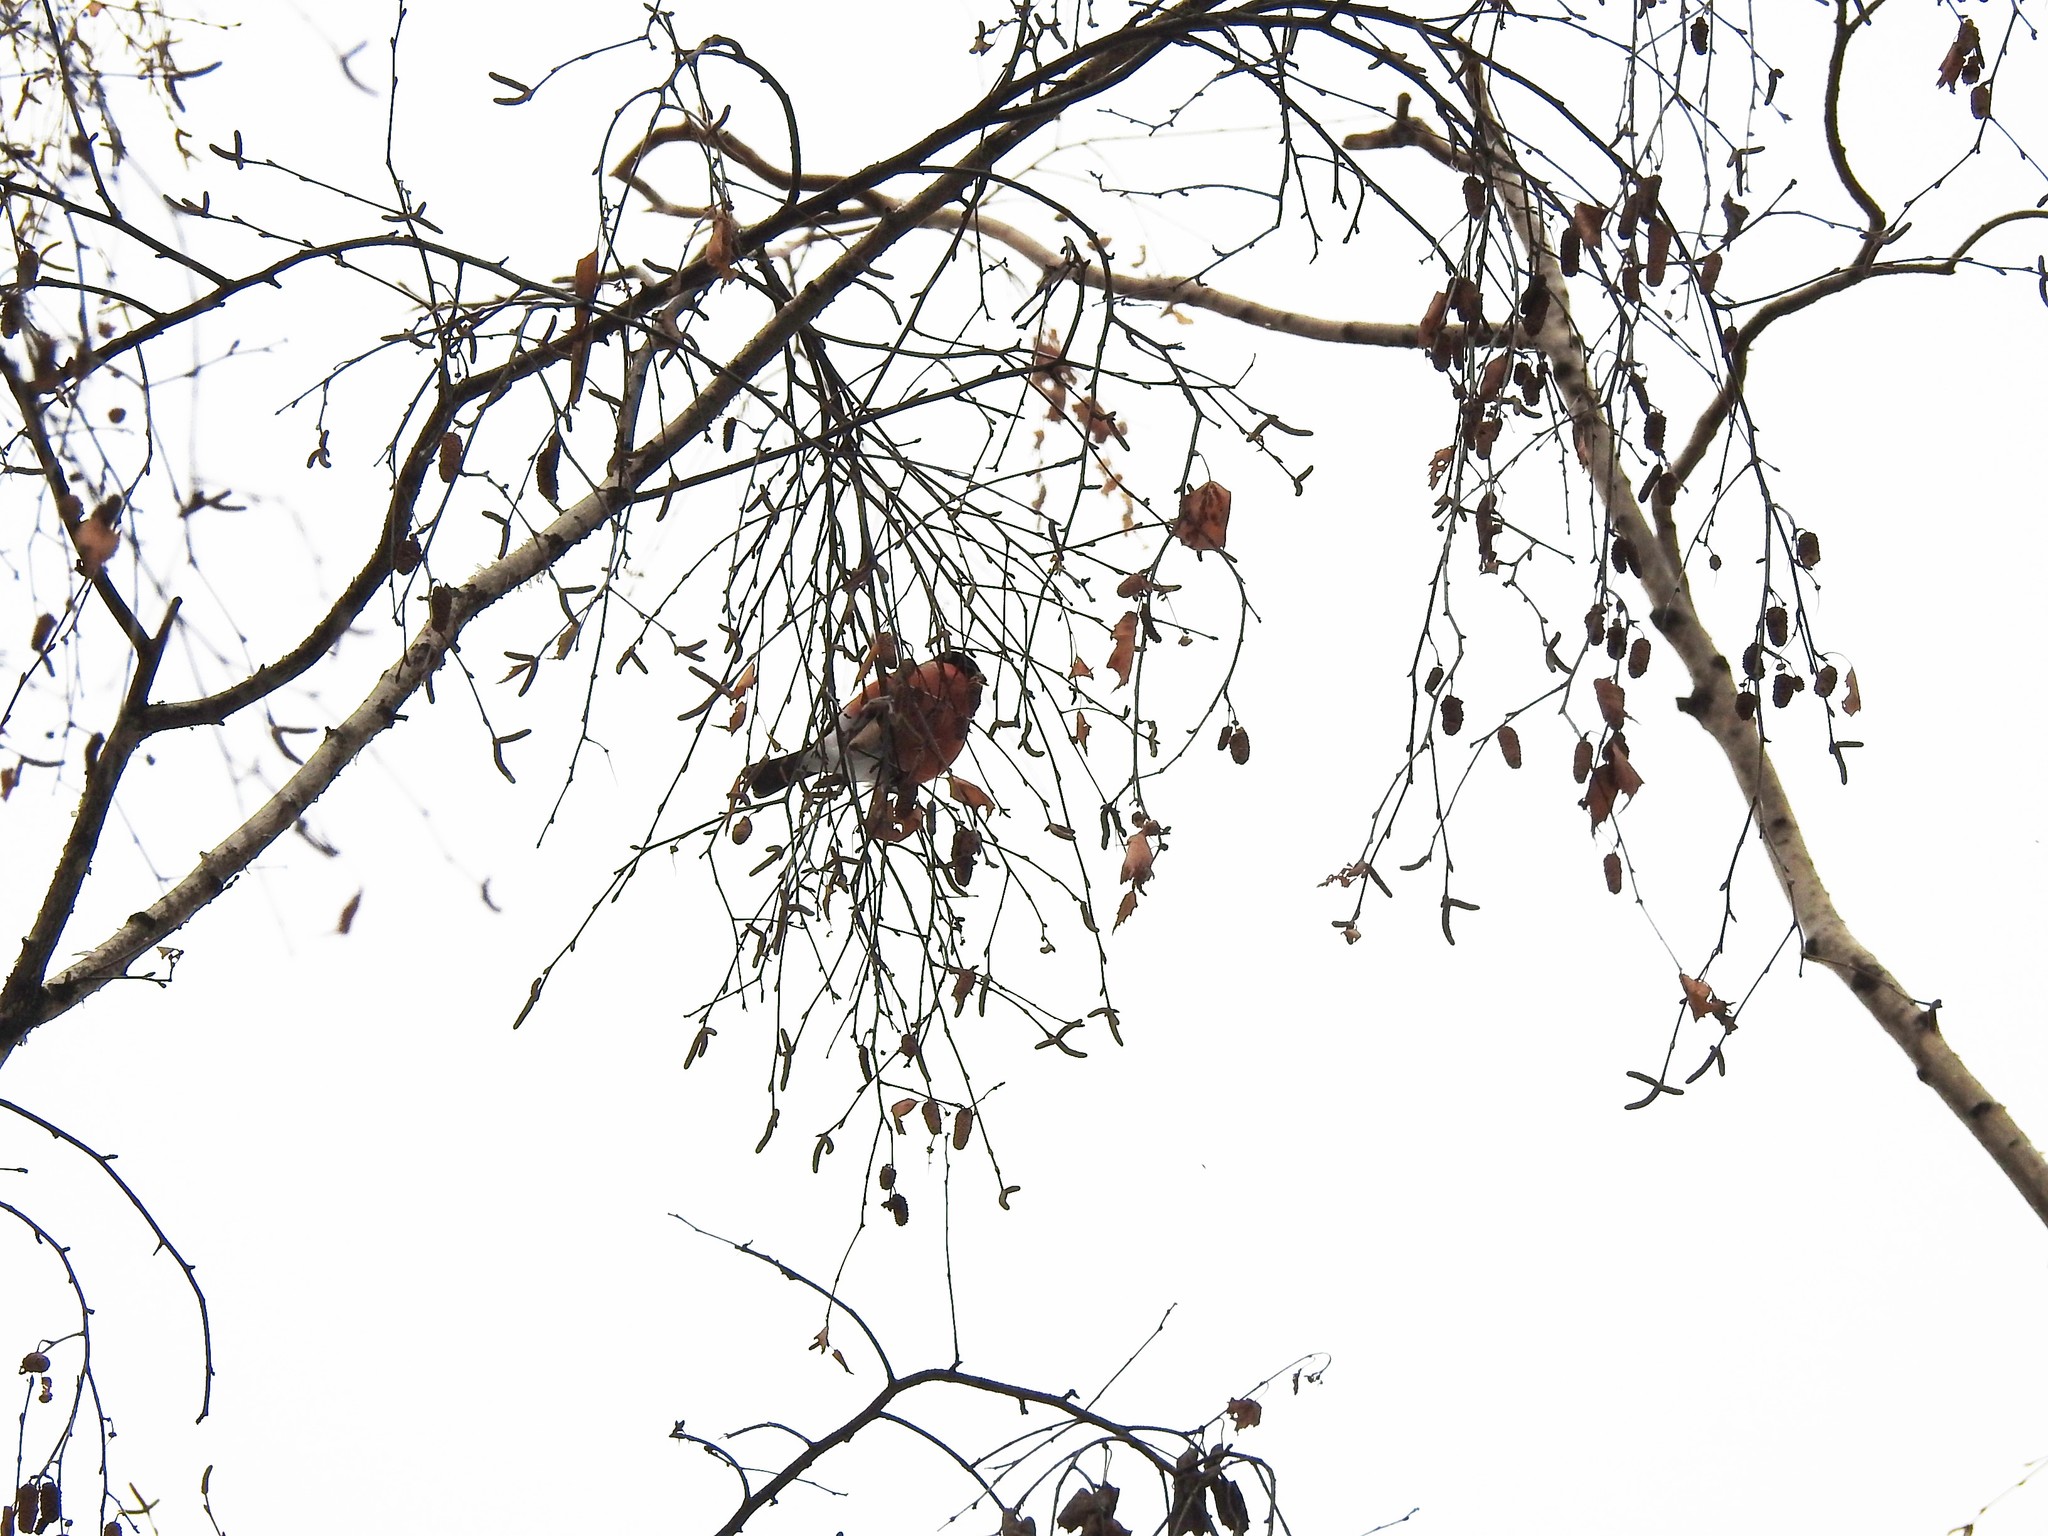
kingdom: Animalia
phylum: Chordata
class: Aves
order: Passeriformes
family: Fringillidae
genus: Pyrrhula
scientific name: Pyrrhula pyrrhula
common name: Eurasian bullfinch
